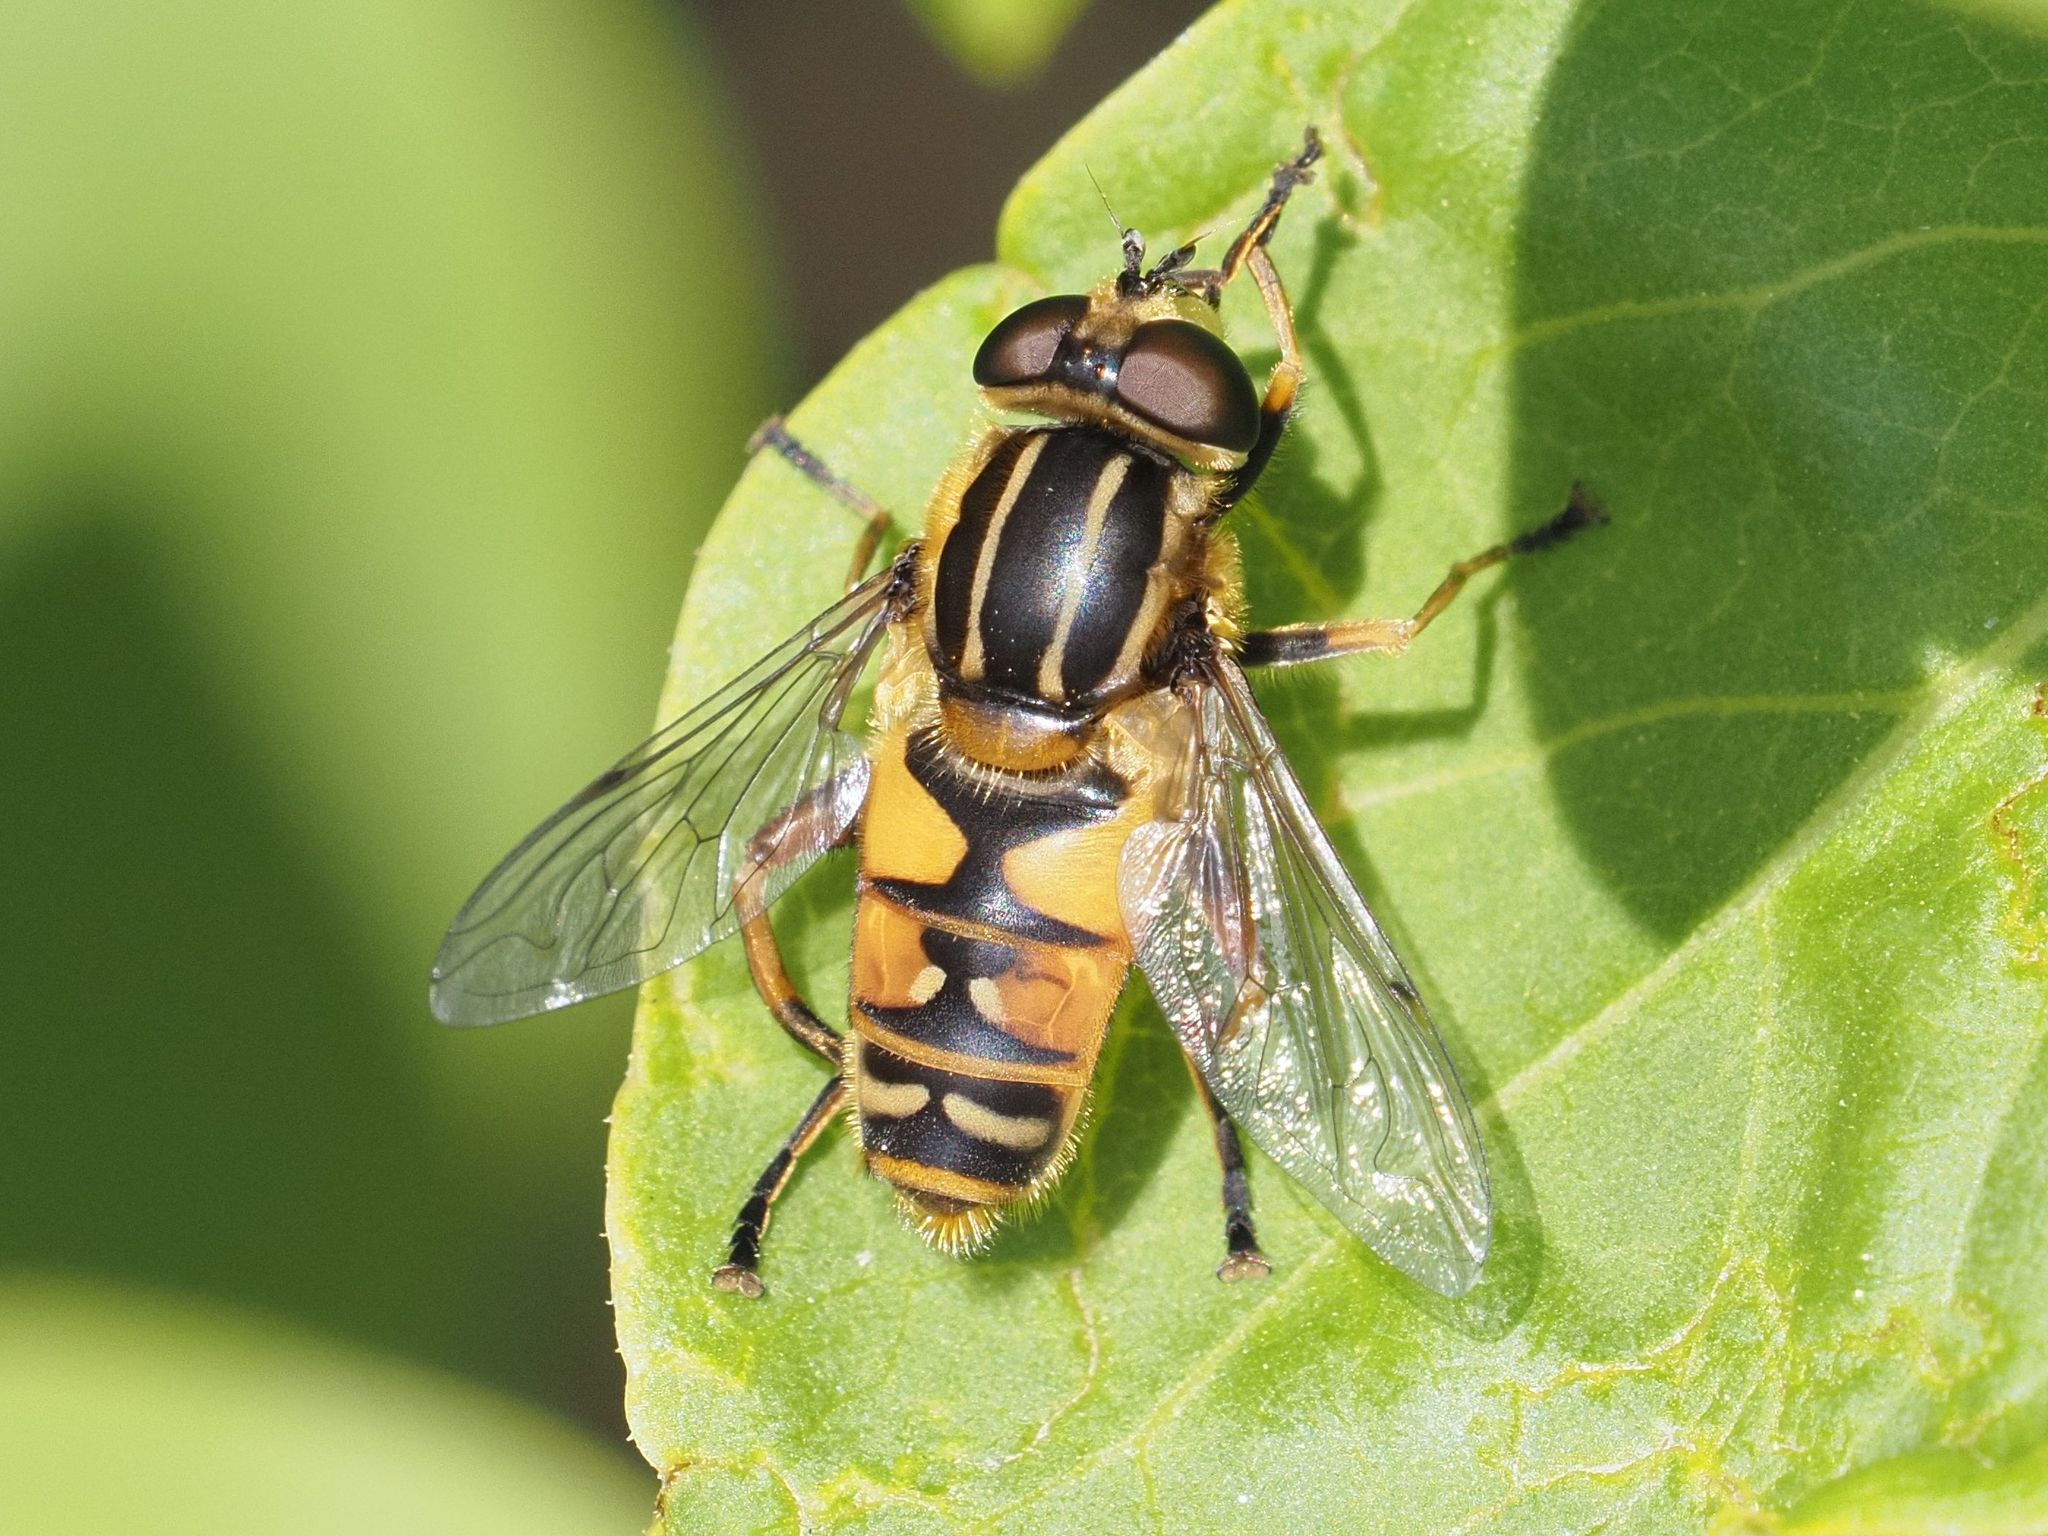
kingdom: Animalia
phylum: Arthropoda
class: Insecta
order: Diptera
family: Syrphidae
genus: Helophilus
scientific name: Helophilus pendulus
